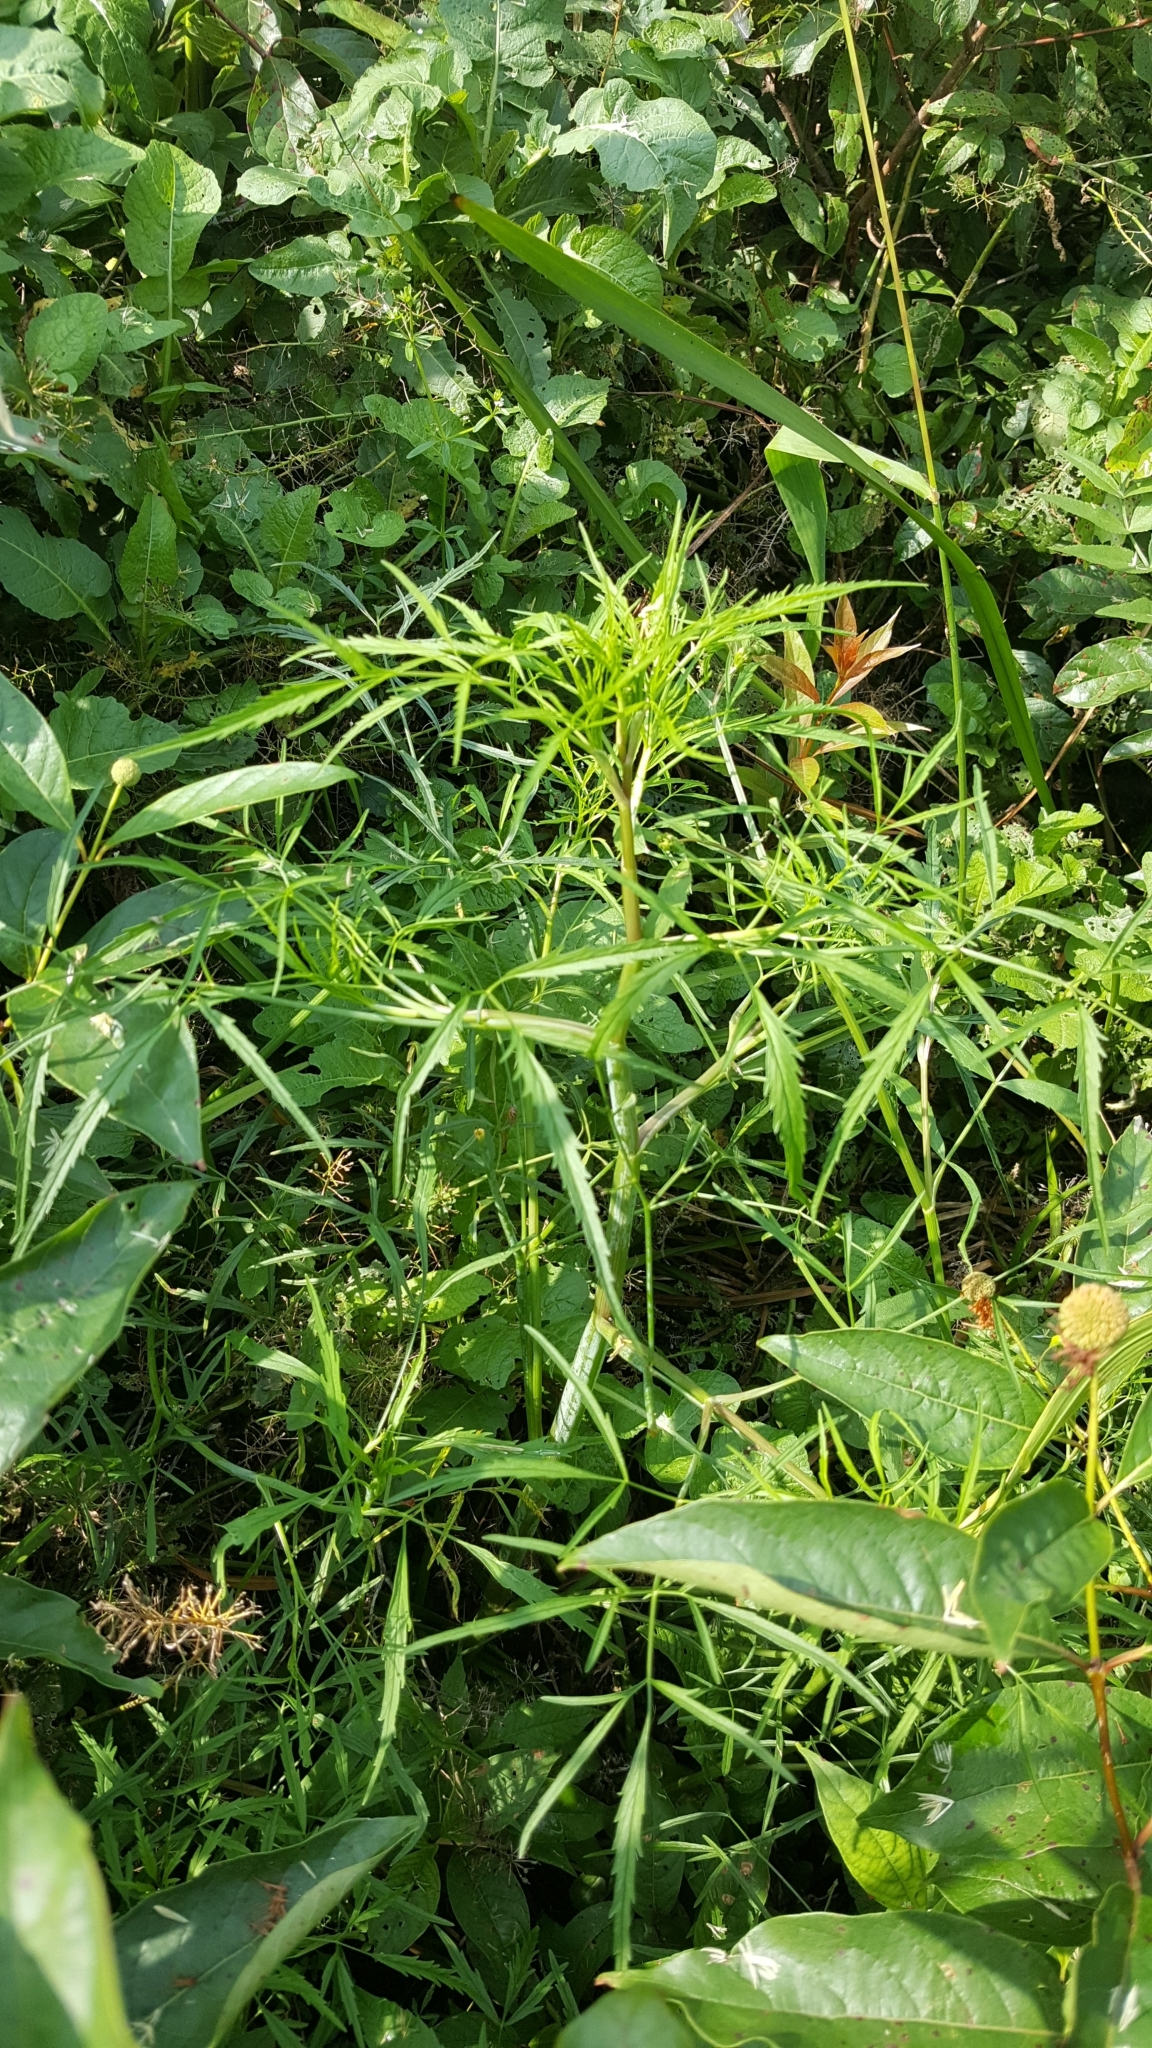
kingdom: Plantae
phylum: Tracheophyta
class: Magnoliopsida
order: Apiales
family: Apiaceae
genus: Cicuta
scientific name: Cicuta bulbifera
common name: Bulb-bearing water-hemlock
